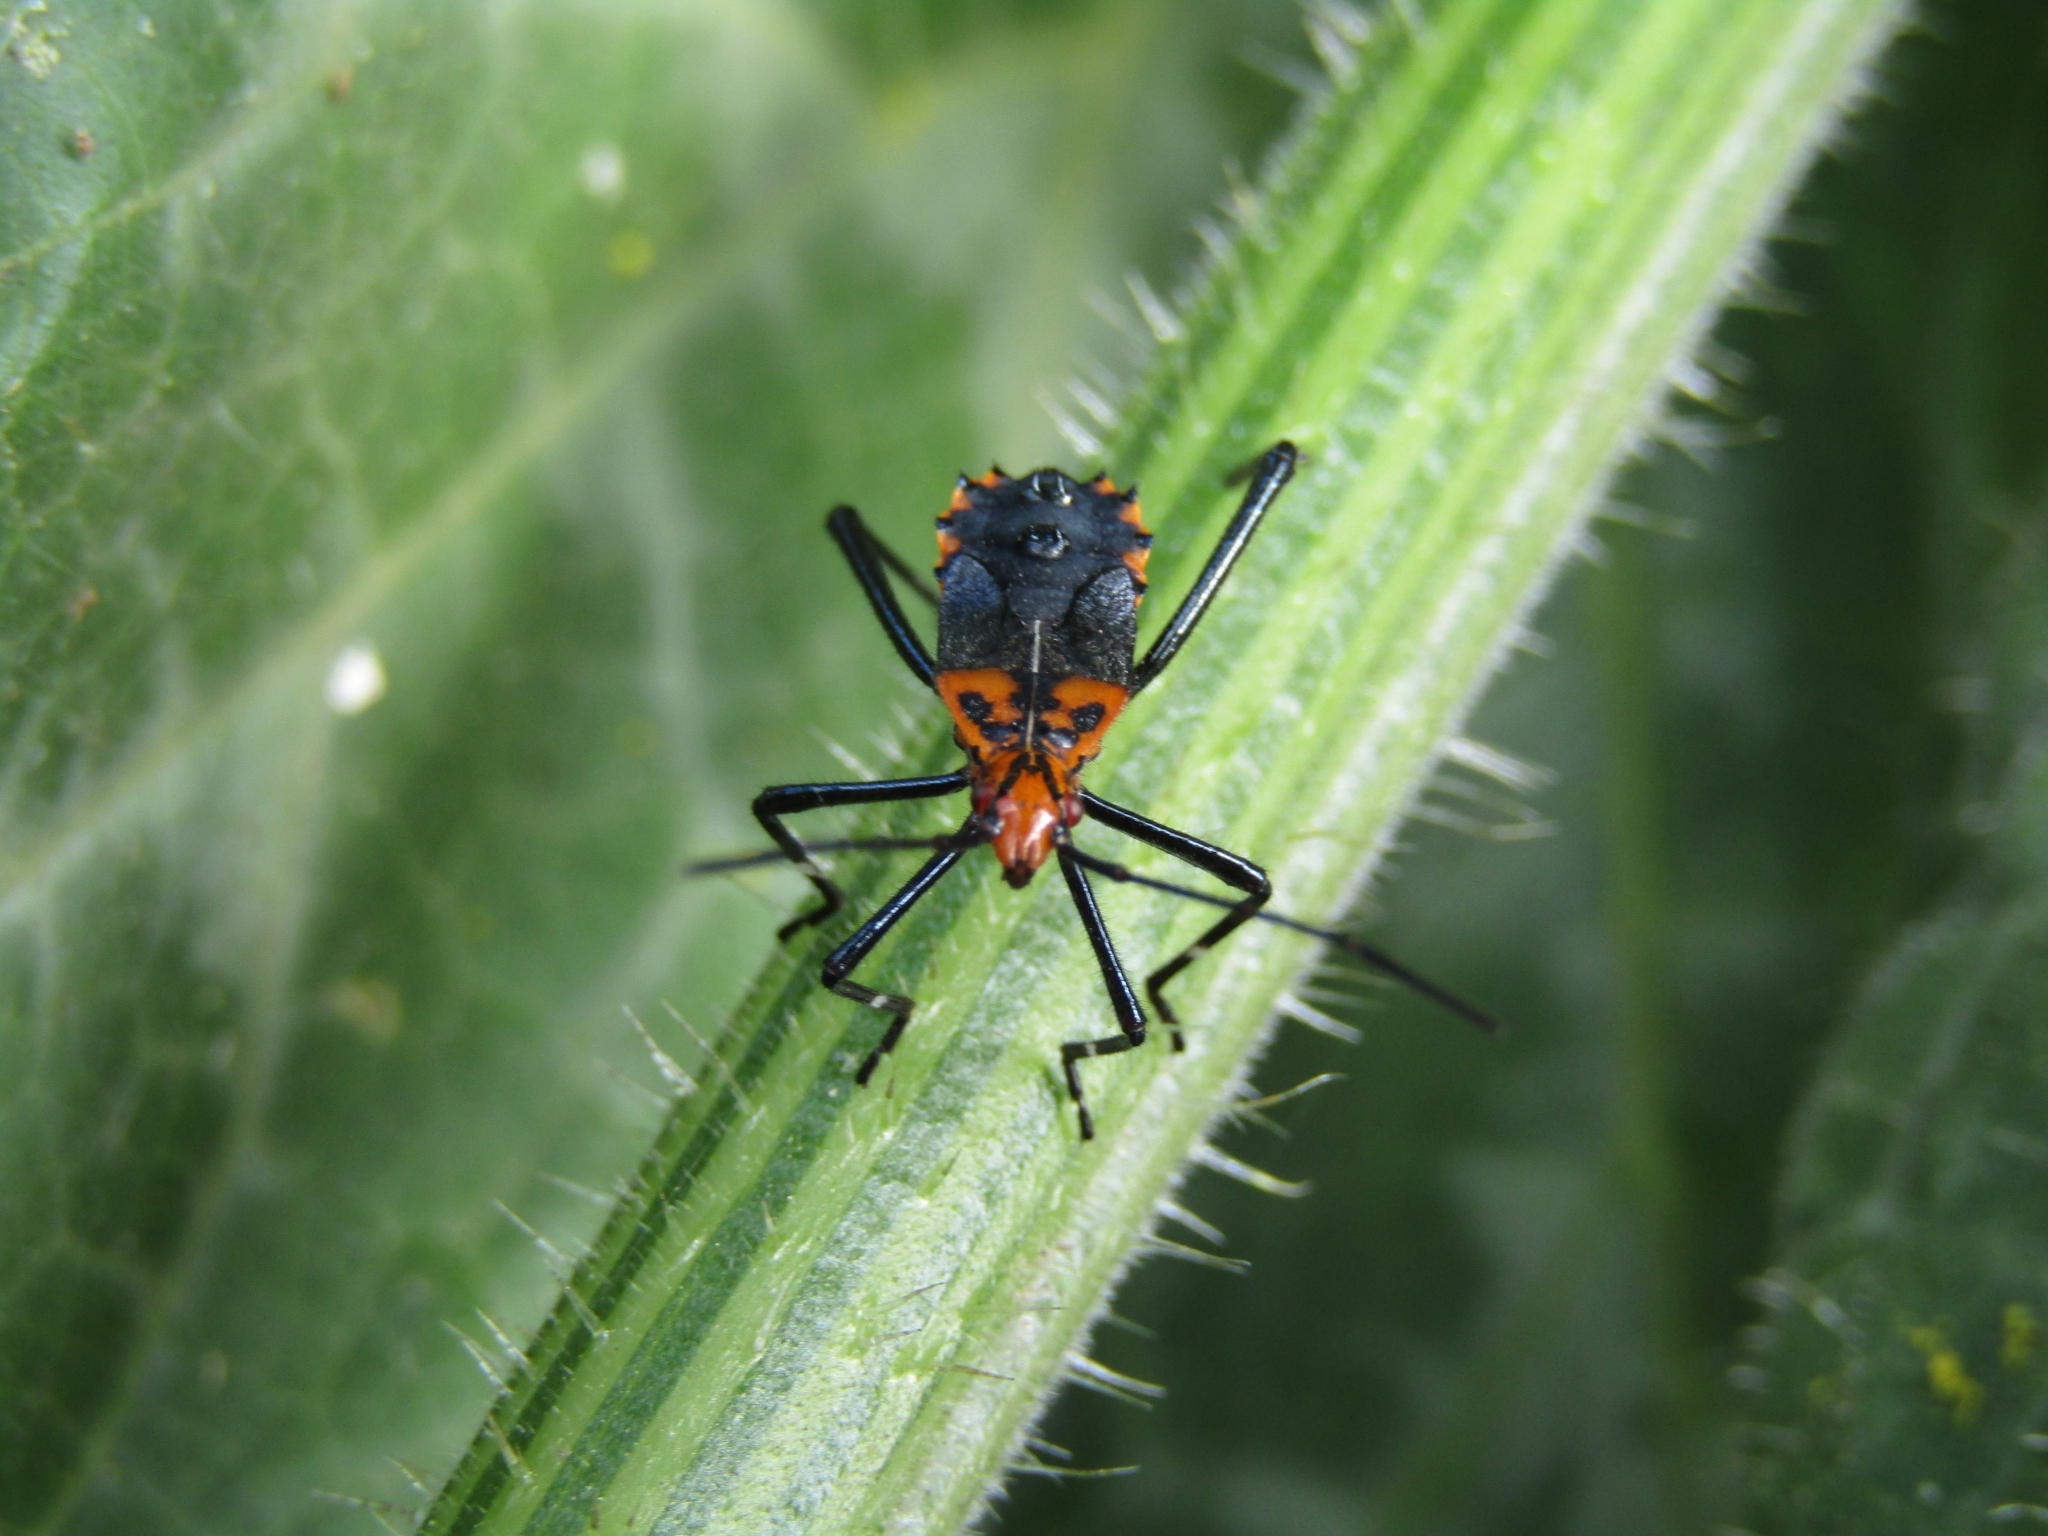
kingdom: Animalia
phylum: Arthropoda
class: Insecta
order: Hemiptera
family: Coreidae
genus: Phthiacnemia
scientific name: Phthiacnemia picta
